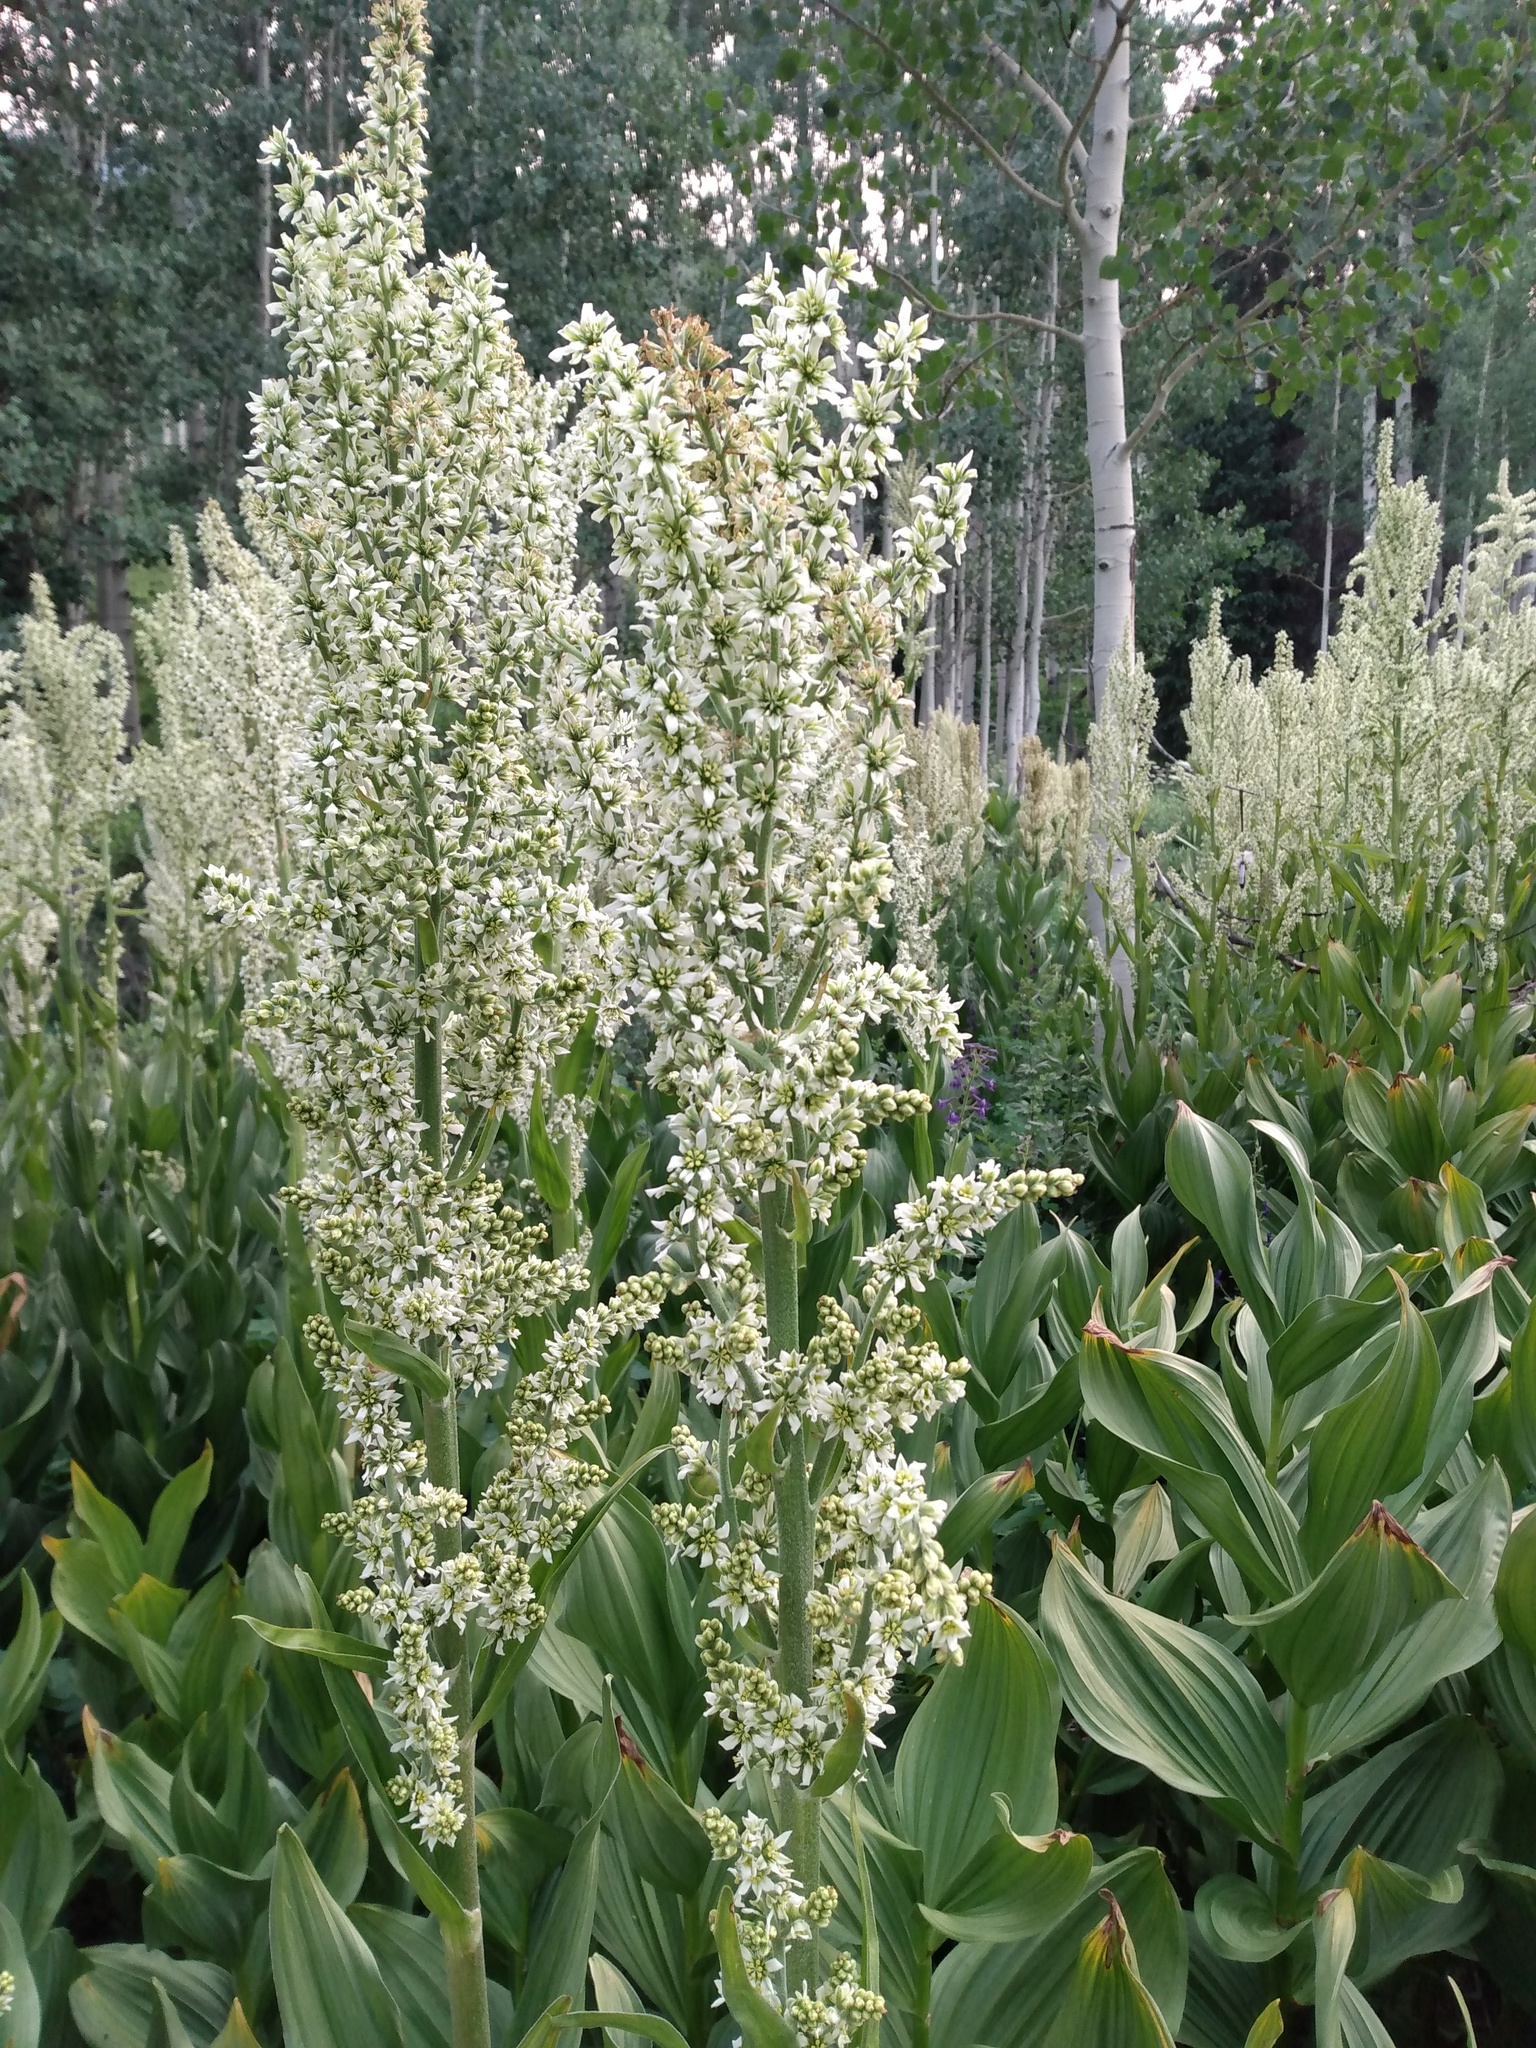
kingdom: Plantae
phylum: Tracheophyta
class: Liliopsida
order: Liliales
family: Melanthiaceae
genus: Veratrum
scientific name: Veratrum californicum
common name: California veratrum
